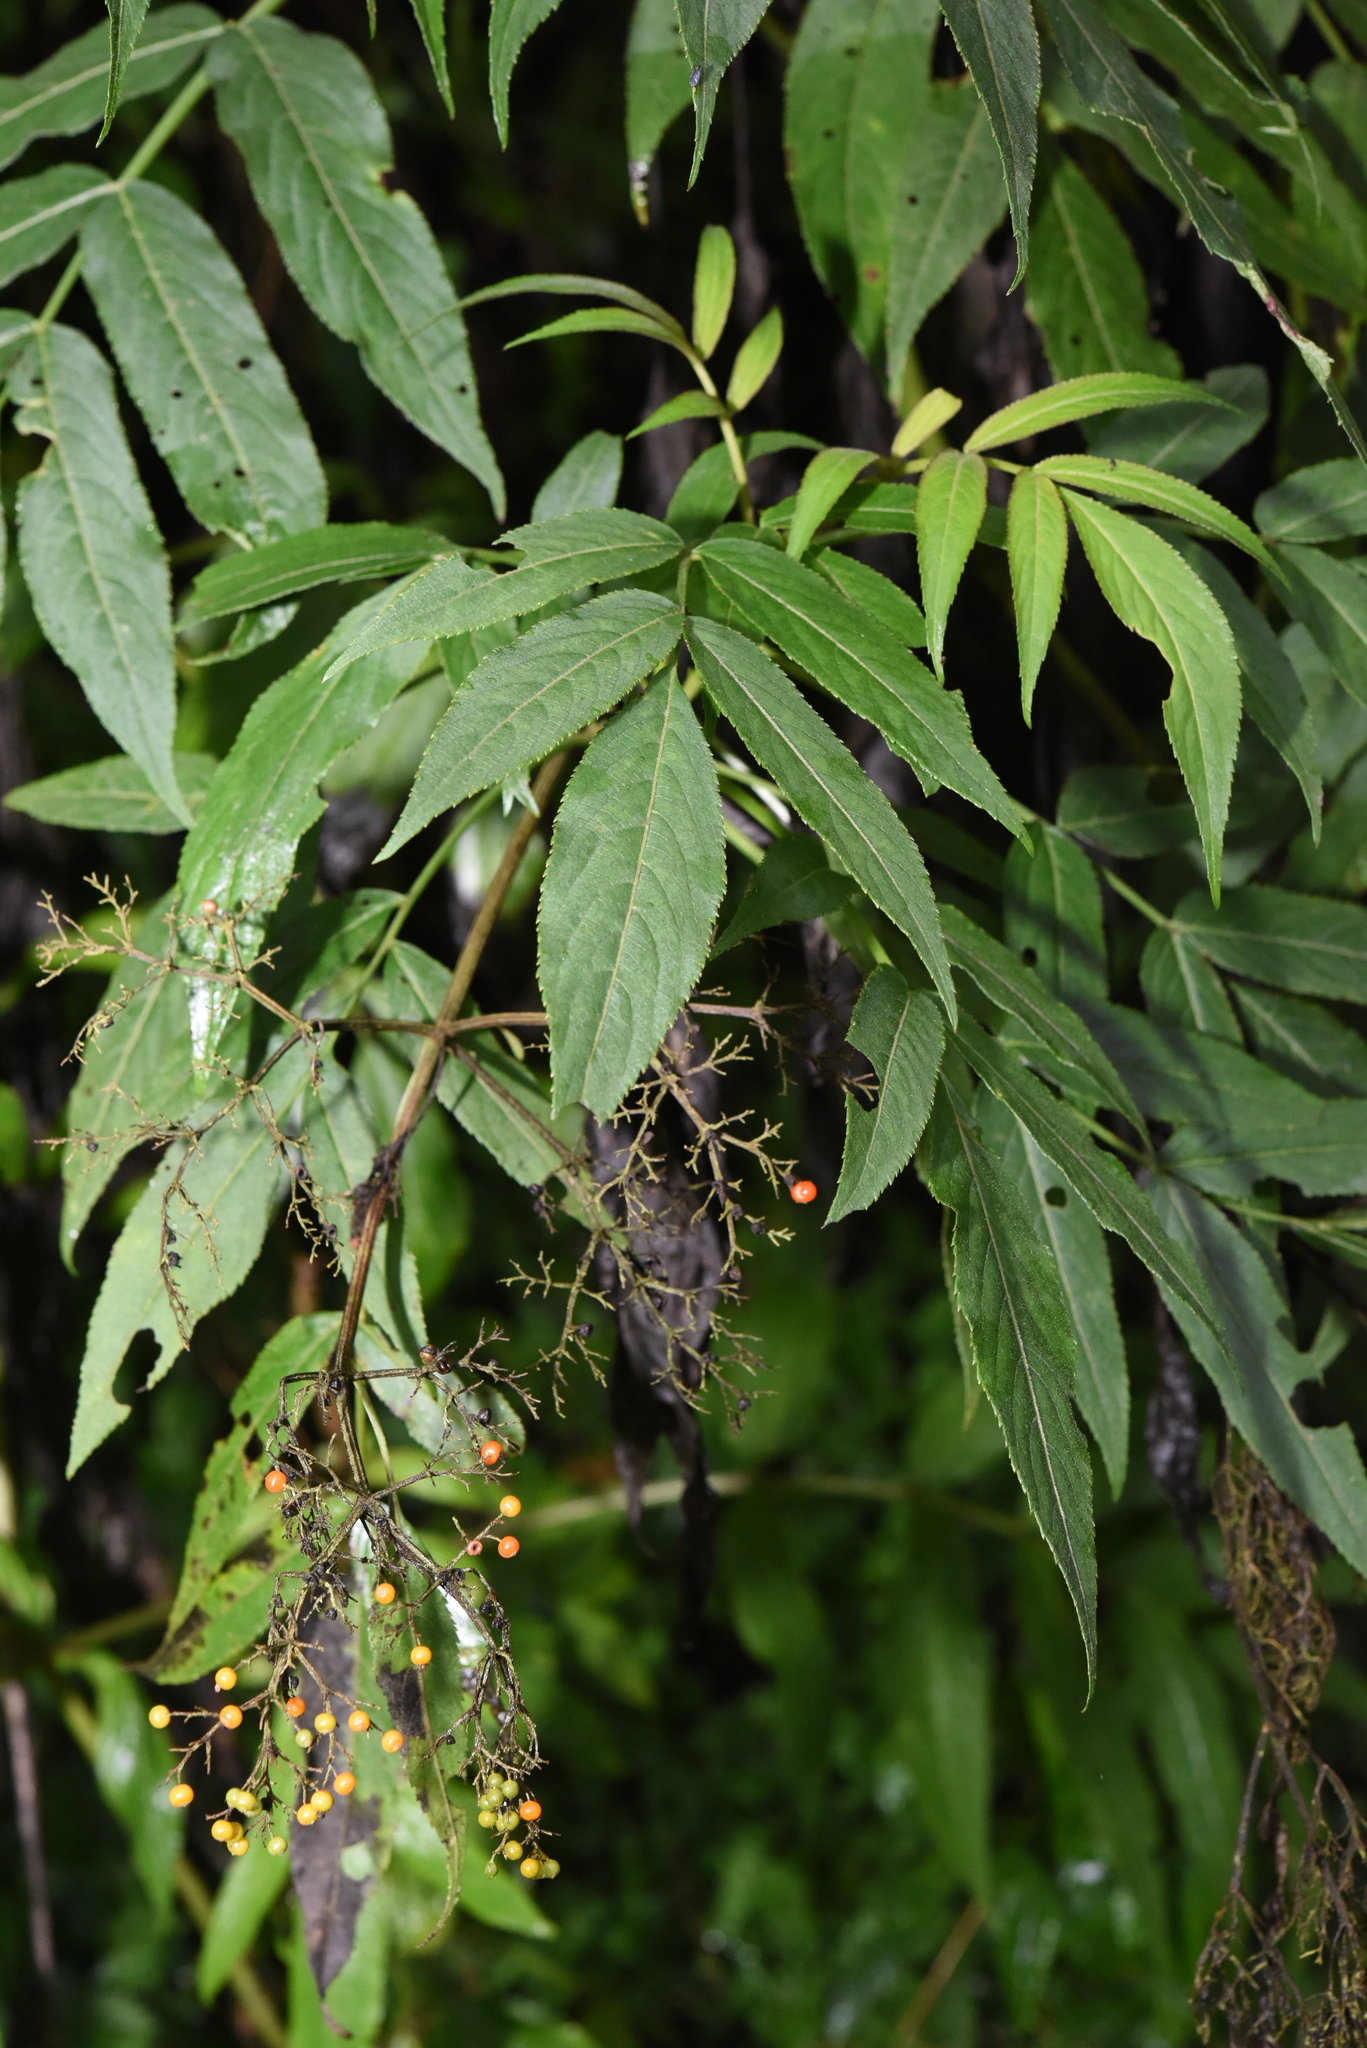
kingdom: Plantae
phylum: Tracheophyta
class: Magnoliopsida
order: Dipsacales
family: Viburnaceae
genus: Sambucus
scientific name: Sambucus javanica
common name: Chinese elder
